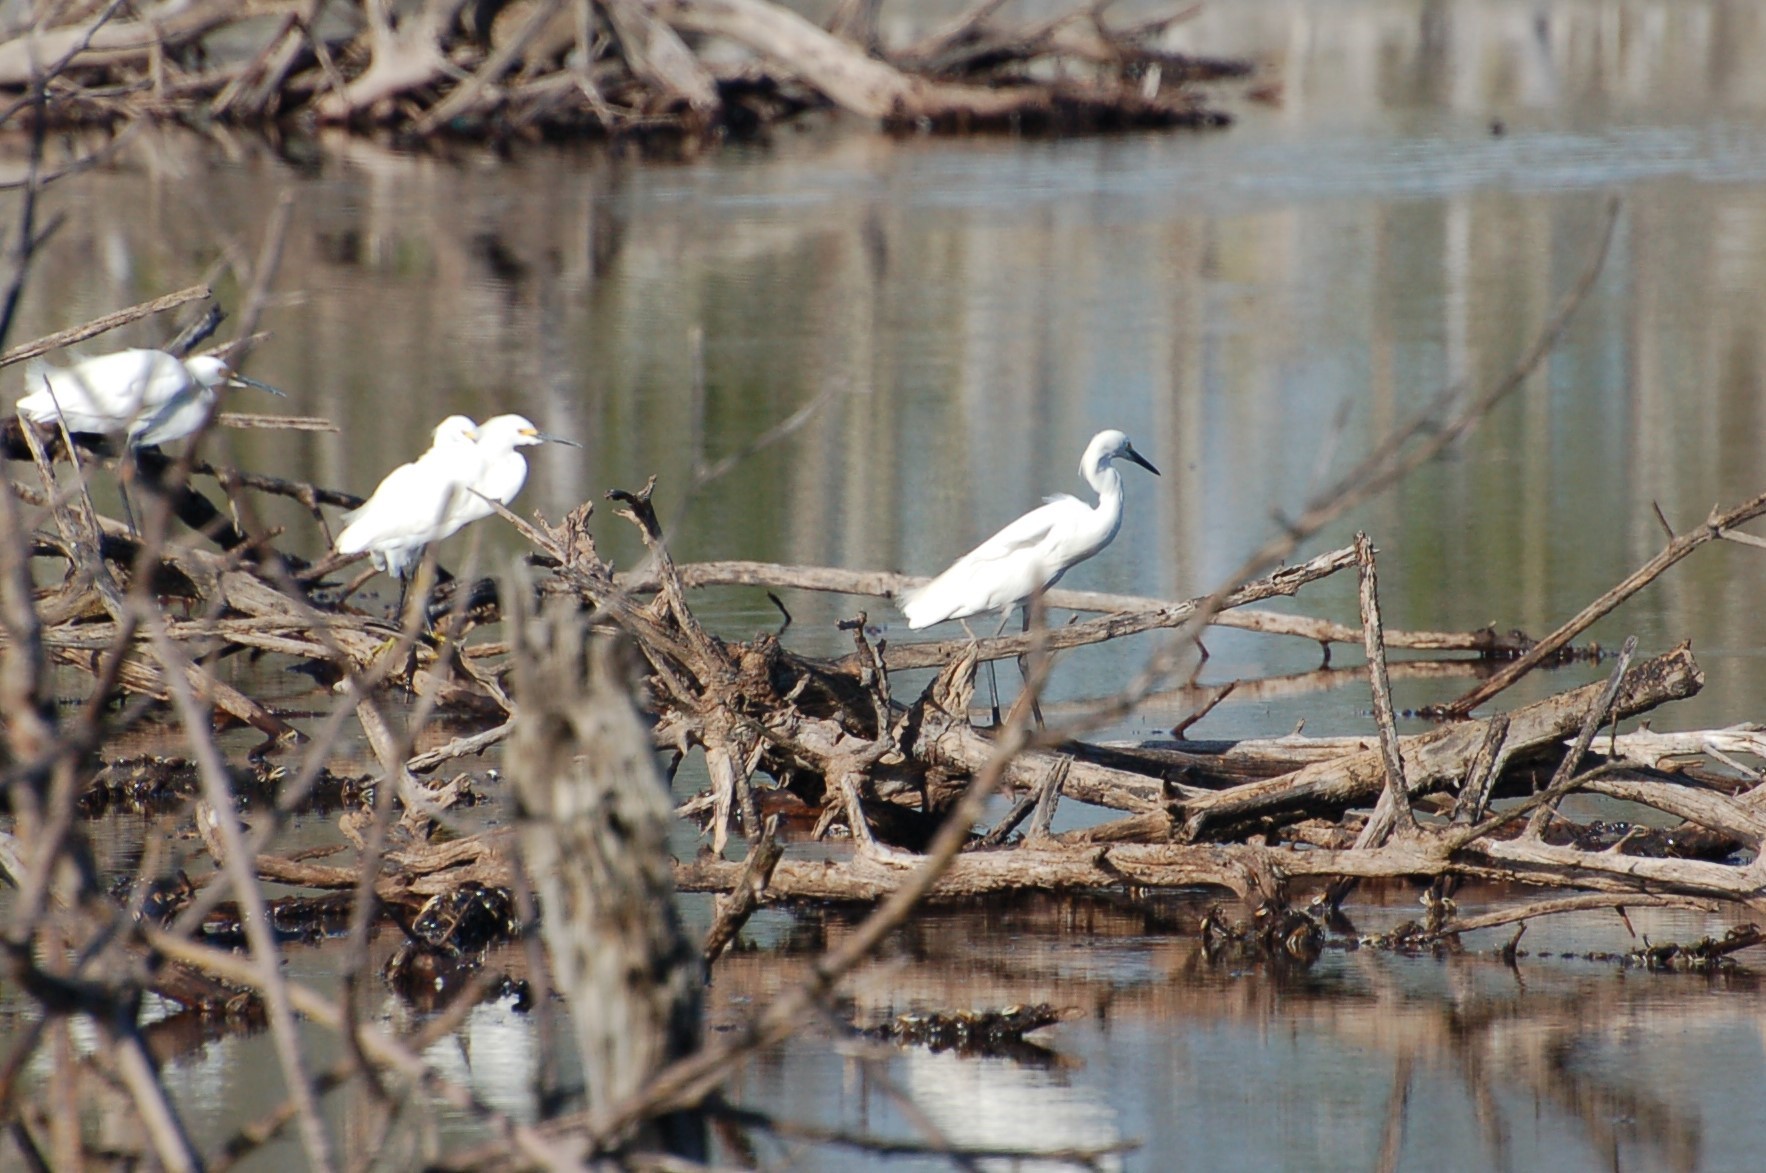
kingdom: Animalia
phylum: Chordata
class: Aves
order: Pelecaniformes
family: Ardeidae
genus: Egretta
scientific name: Egretta thula
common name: Snowy egret
